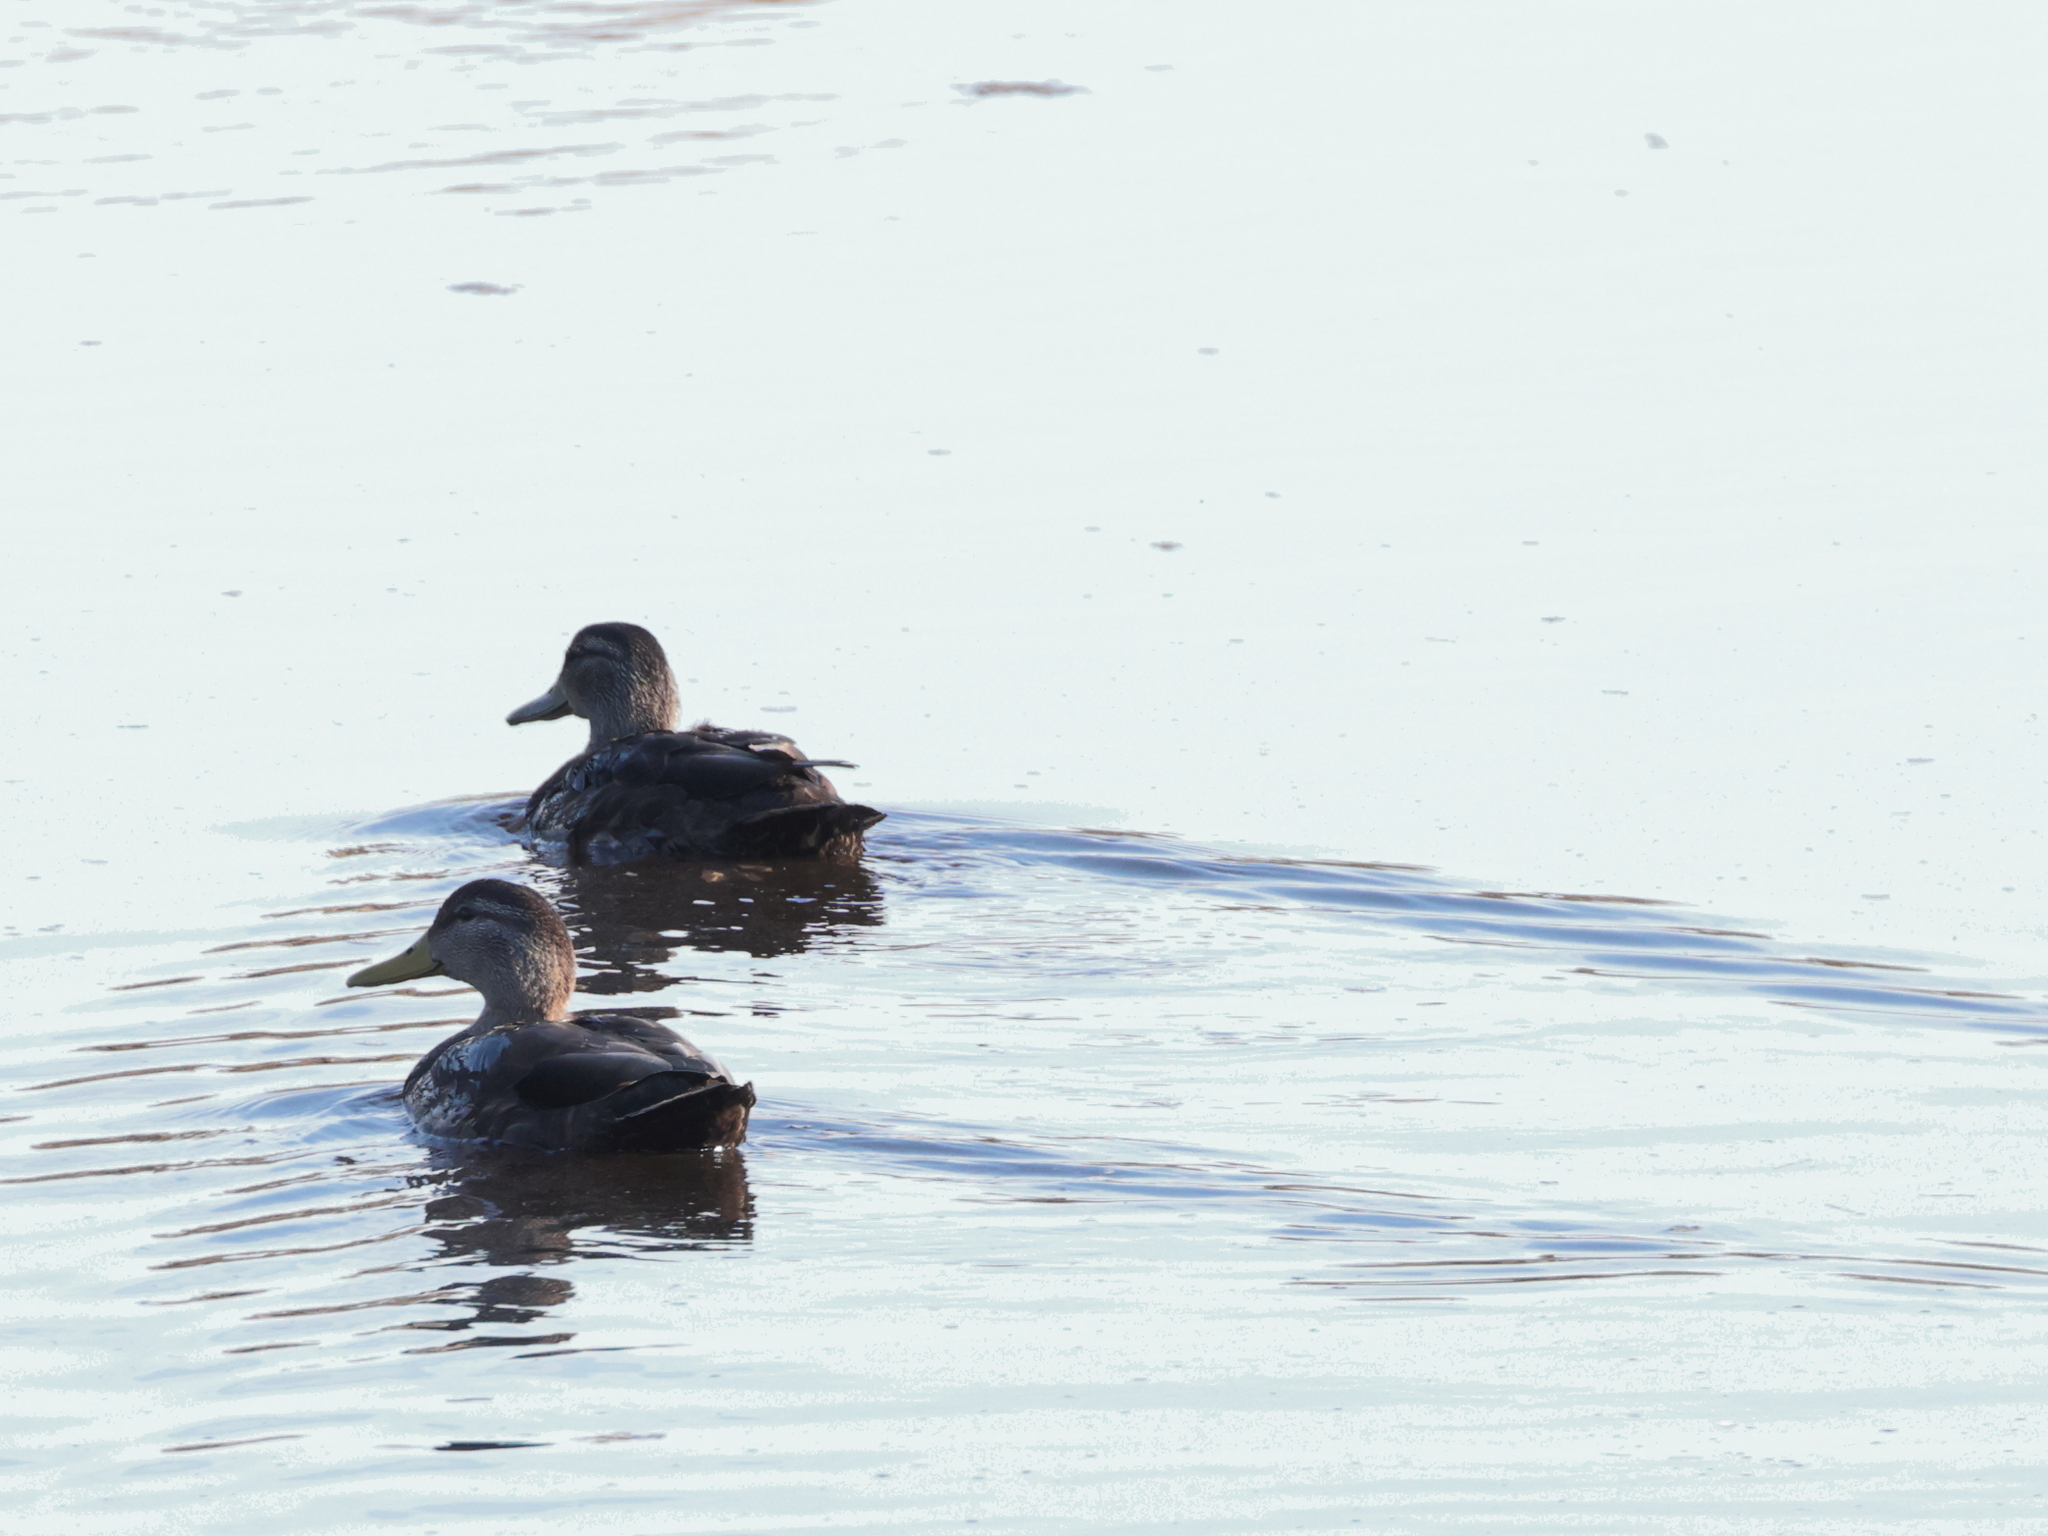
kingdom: Animalia
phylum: Chordata
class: Aves
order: Anseriformes
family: Anatidae
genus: Anas
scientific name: Anas rubripes
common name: American black duck
